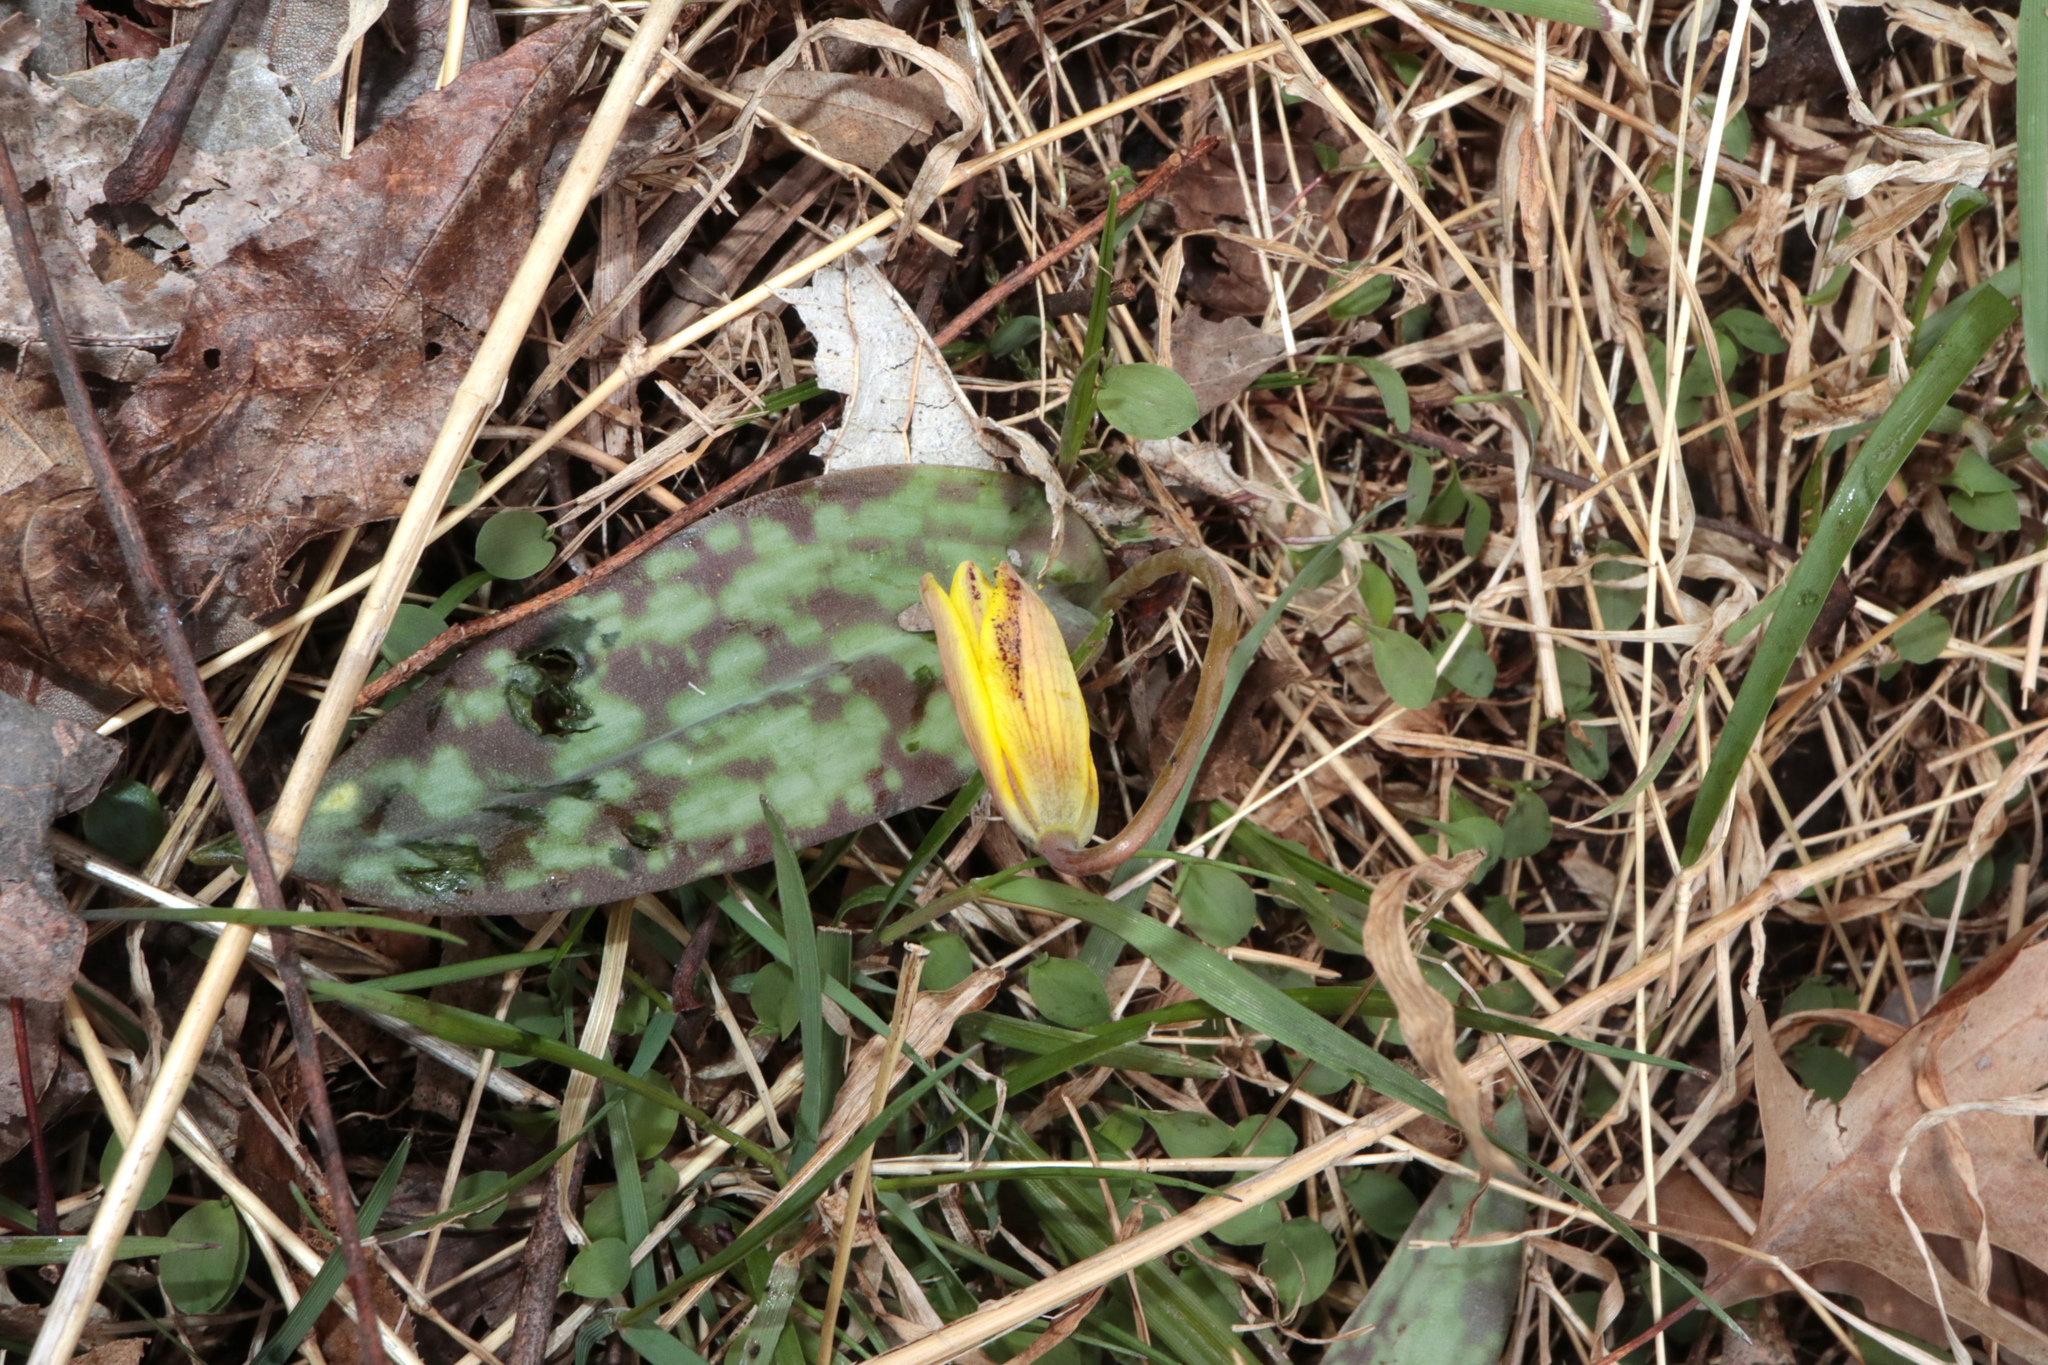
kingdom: Plantae
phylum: Tracheophyta
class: Liliopsida
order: Liliales
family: Liliaceae
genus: Erythronium
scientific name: Erythronium americanum
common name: Yellow adder's-tongue
